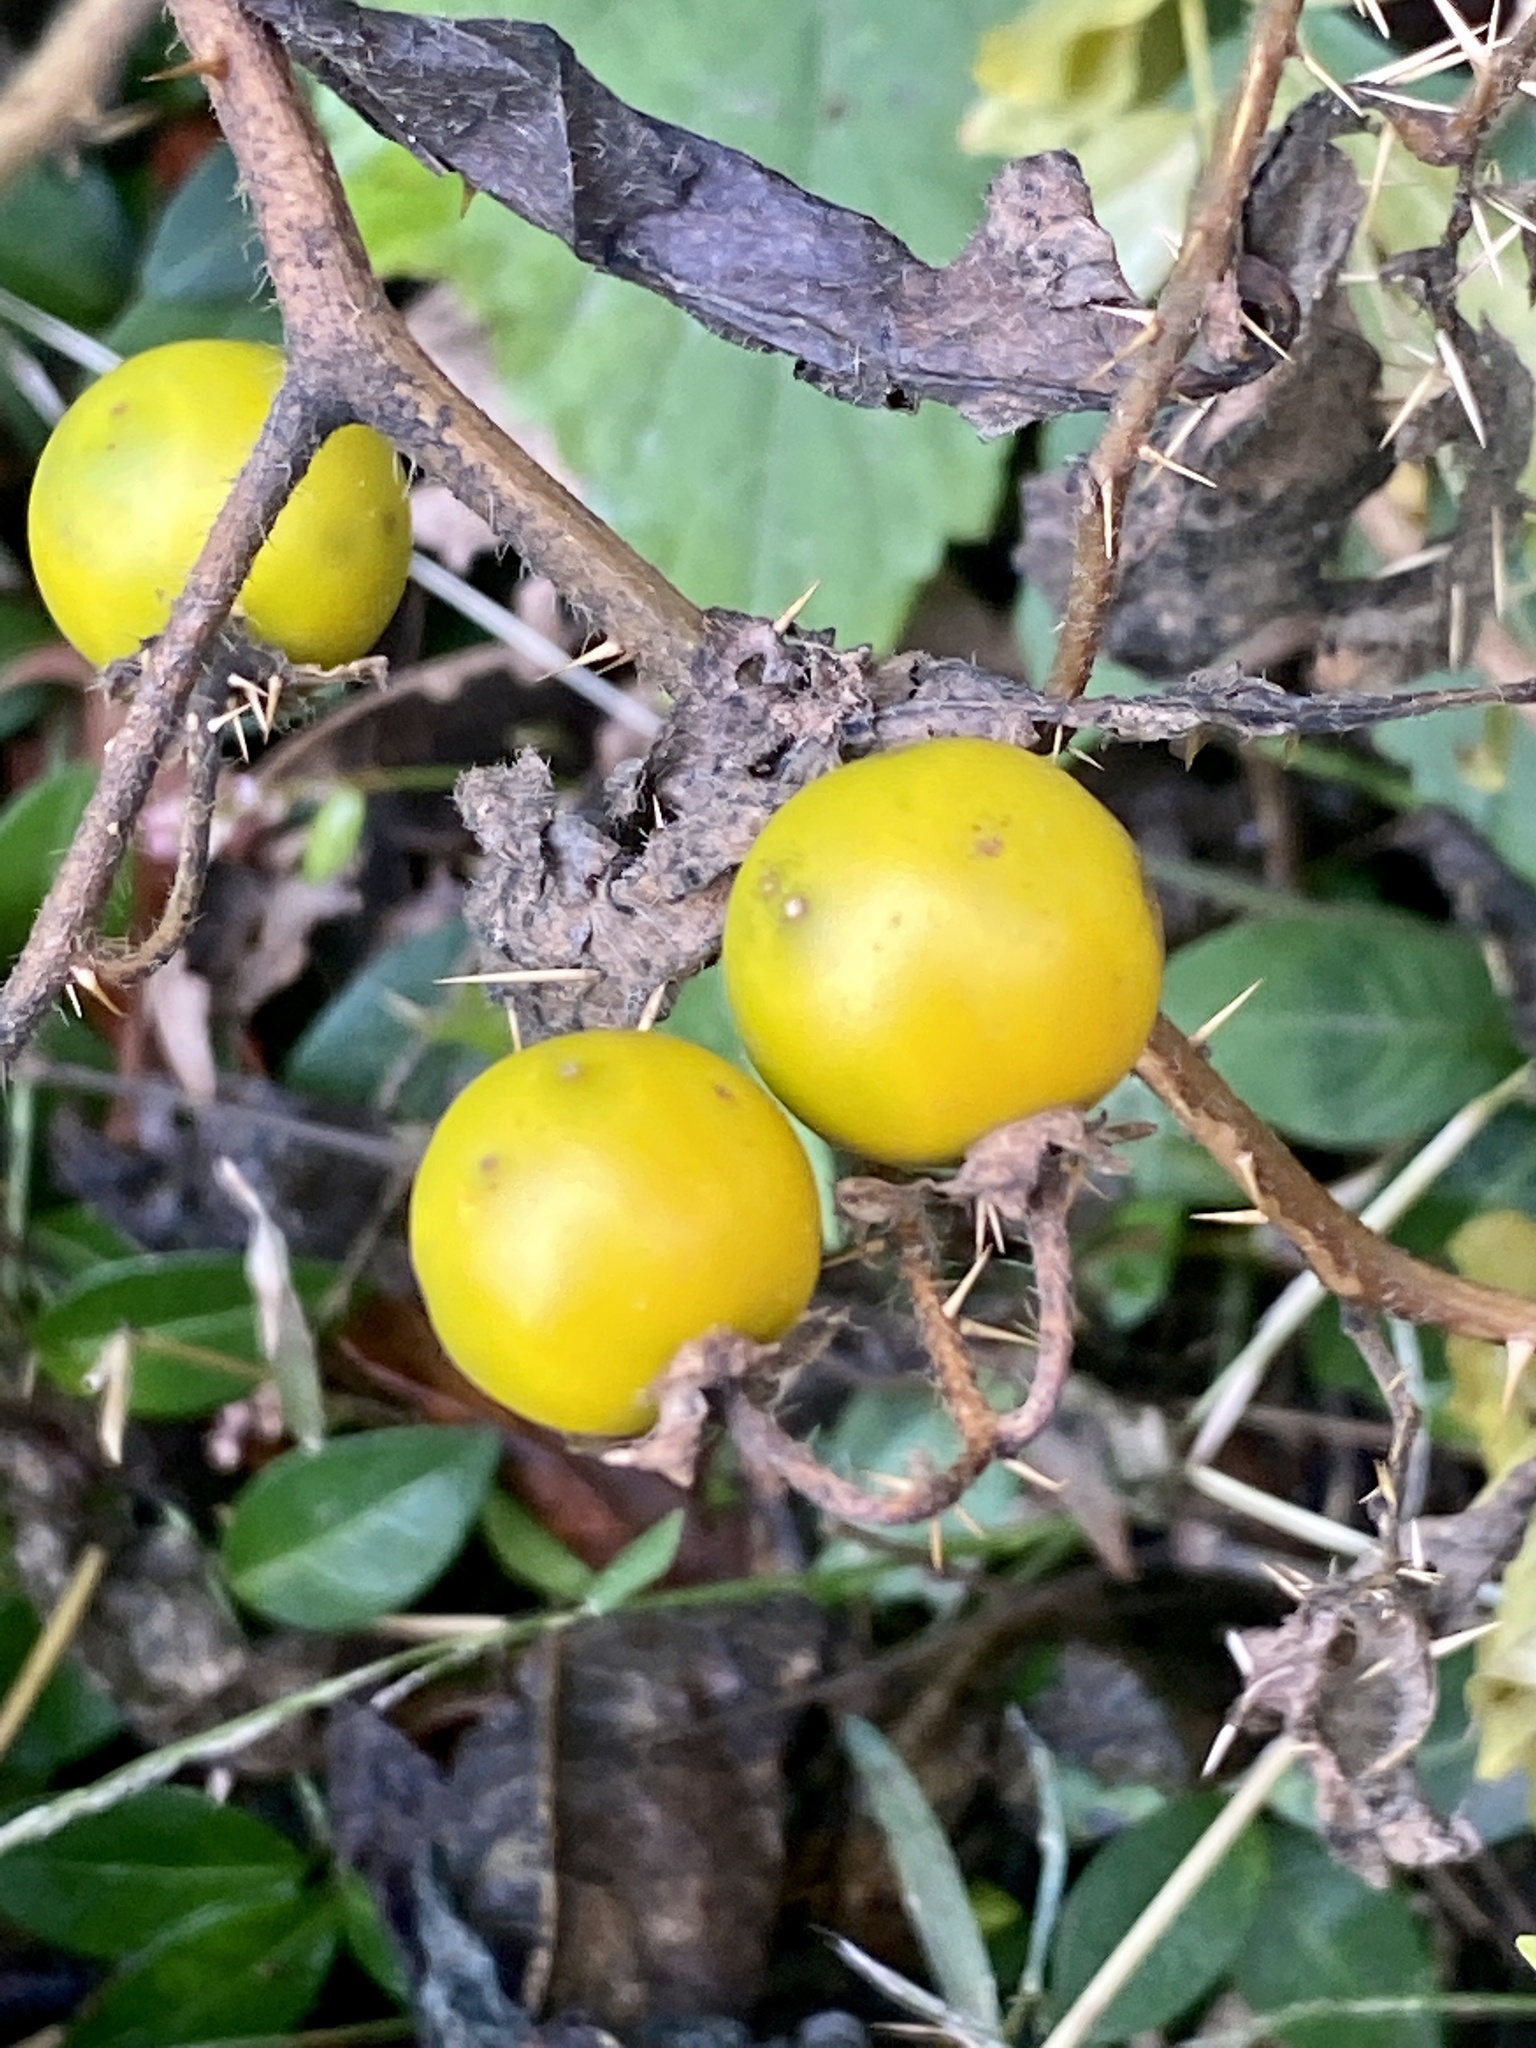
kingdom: Plantae
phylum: Tracheophyta
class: Magnoliopsida
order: Solanales
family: Solanaceae
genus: Solanum
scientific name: Solanum carolinense
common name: Horse-nettle
